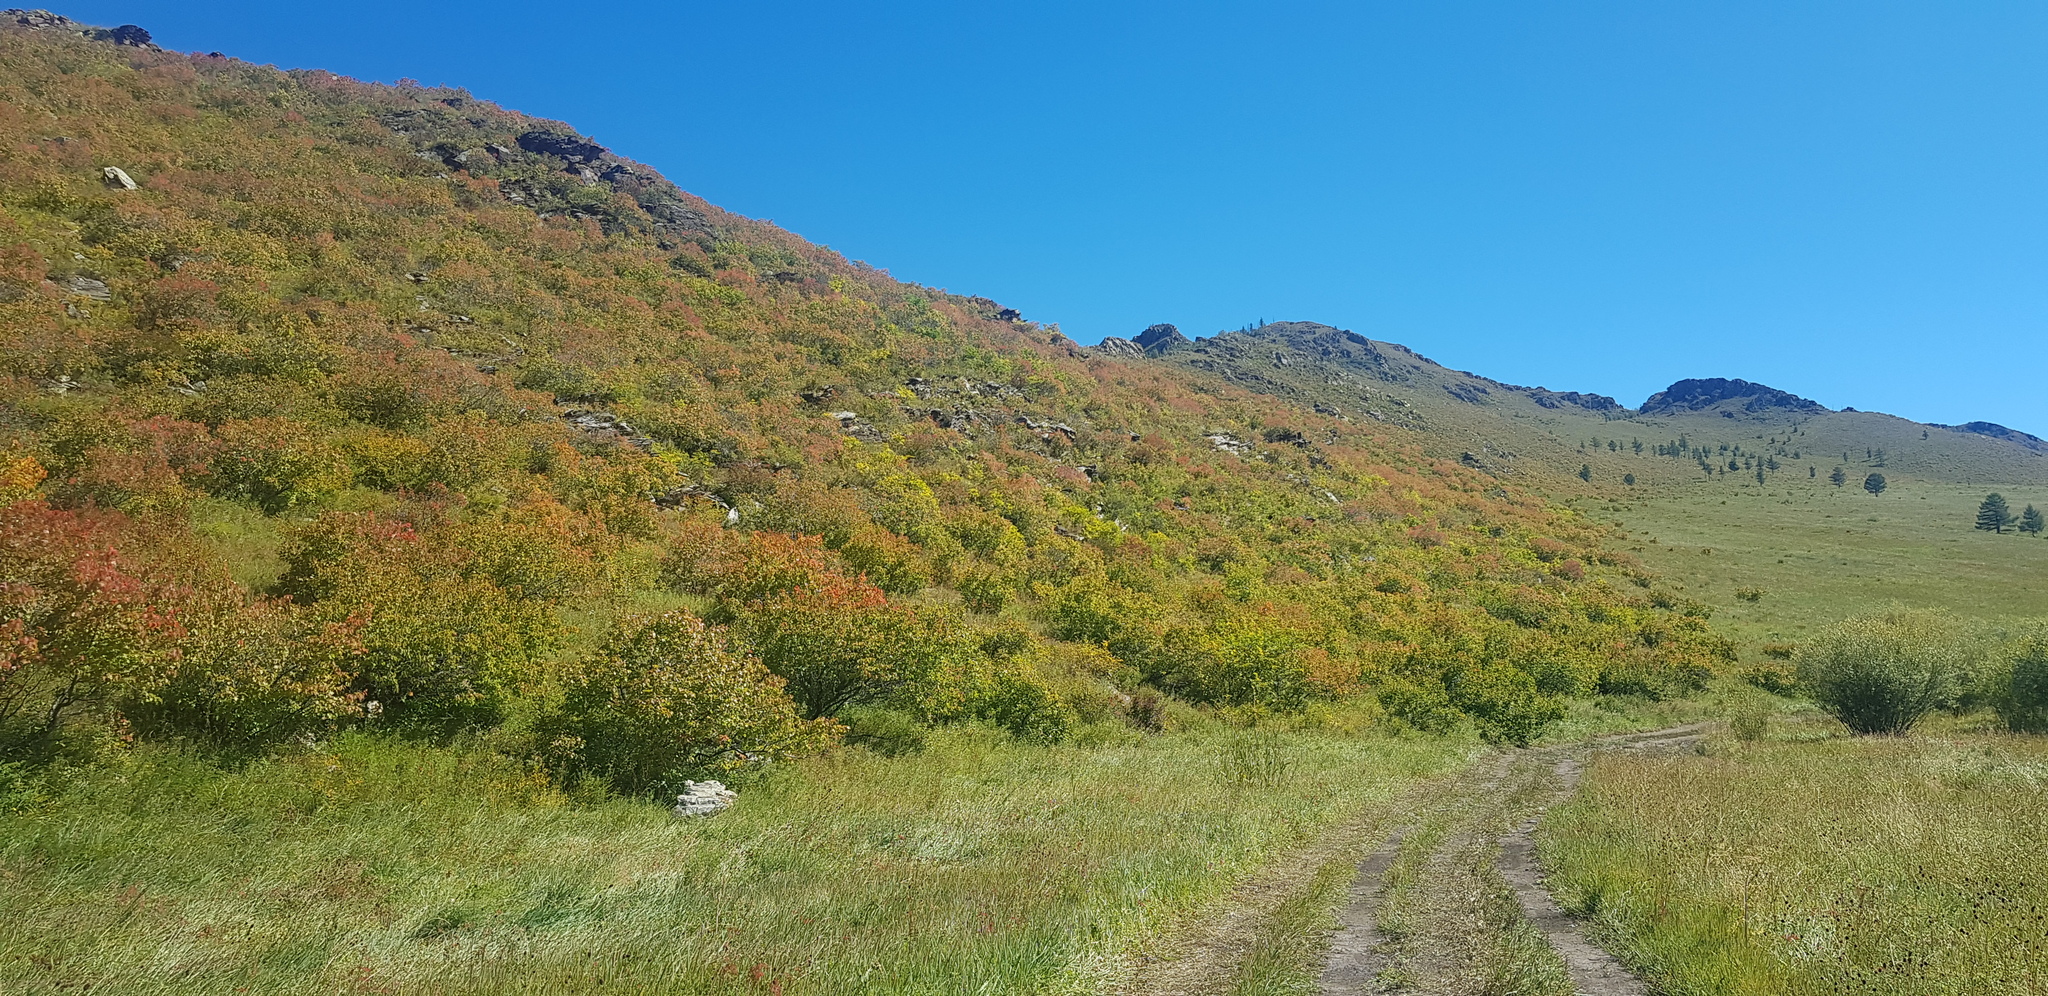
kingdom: Plantae
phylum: Tracheophyta
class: Magnoliopsida
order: Rosales
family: Rosaceae
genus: Prunus
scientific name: Prunus sibirica
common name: Siberian apricot
